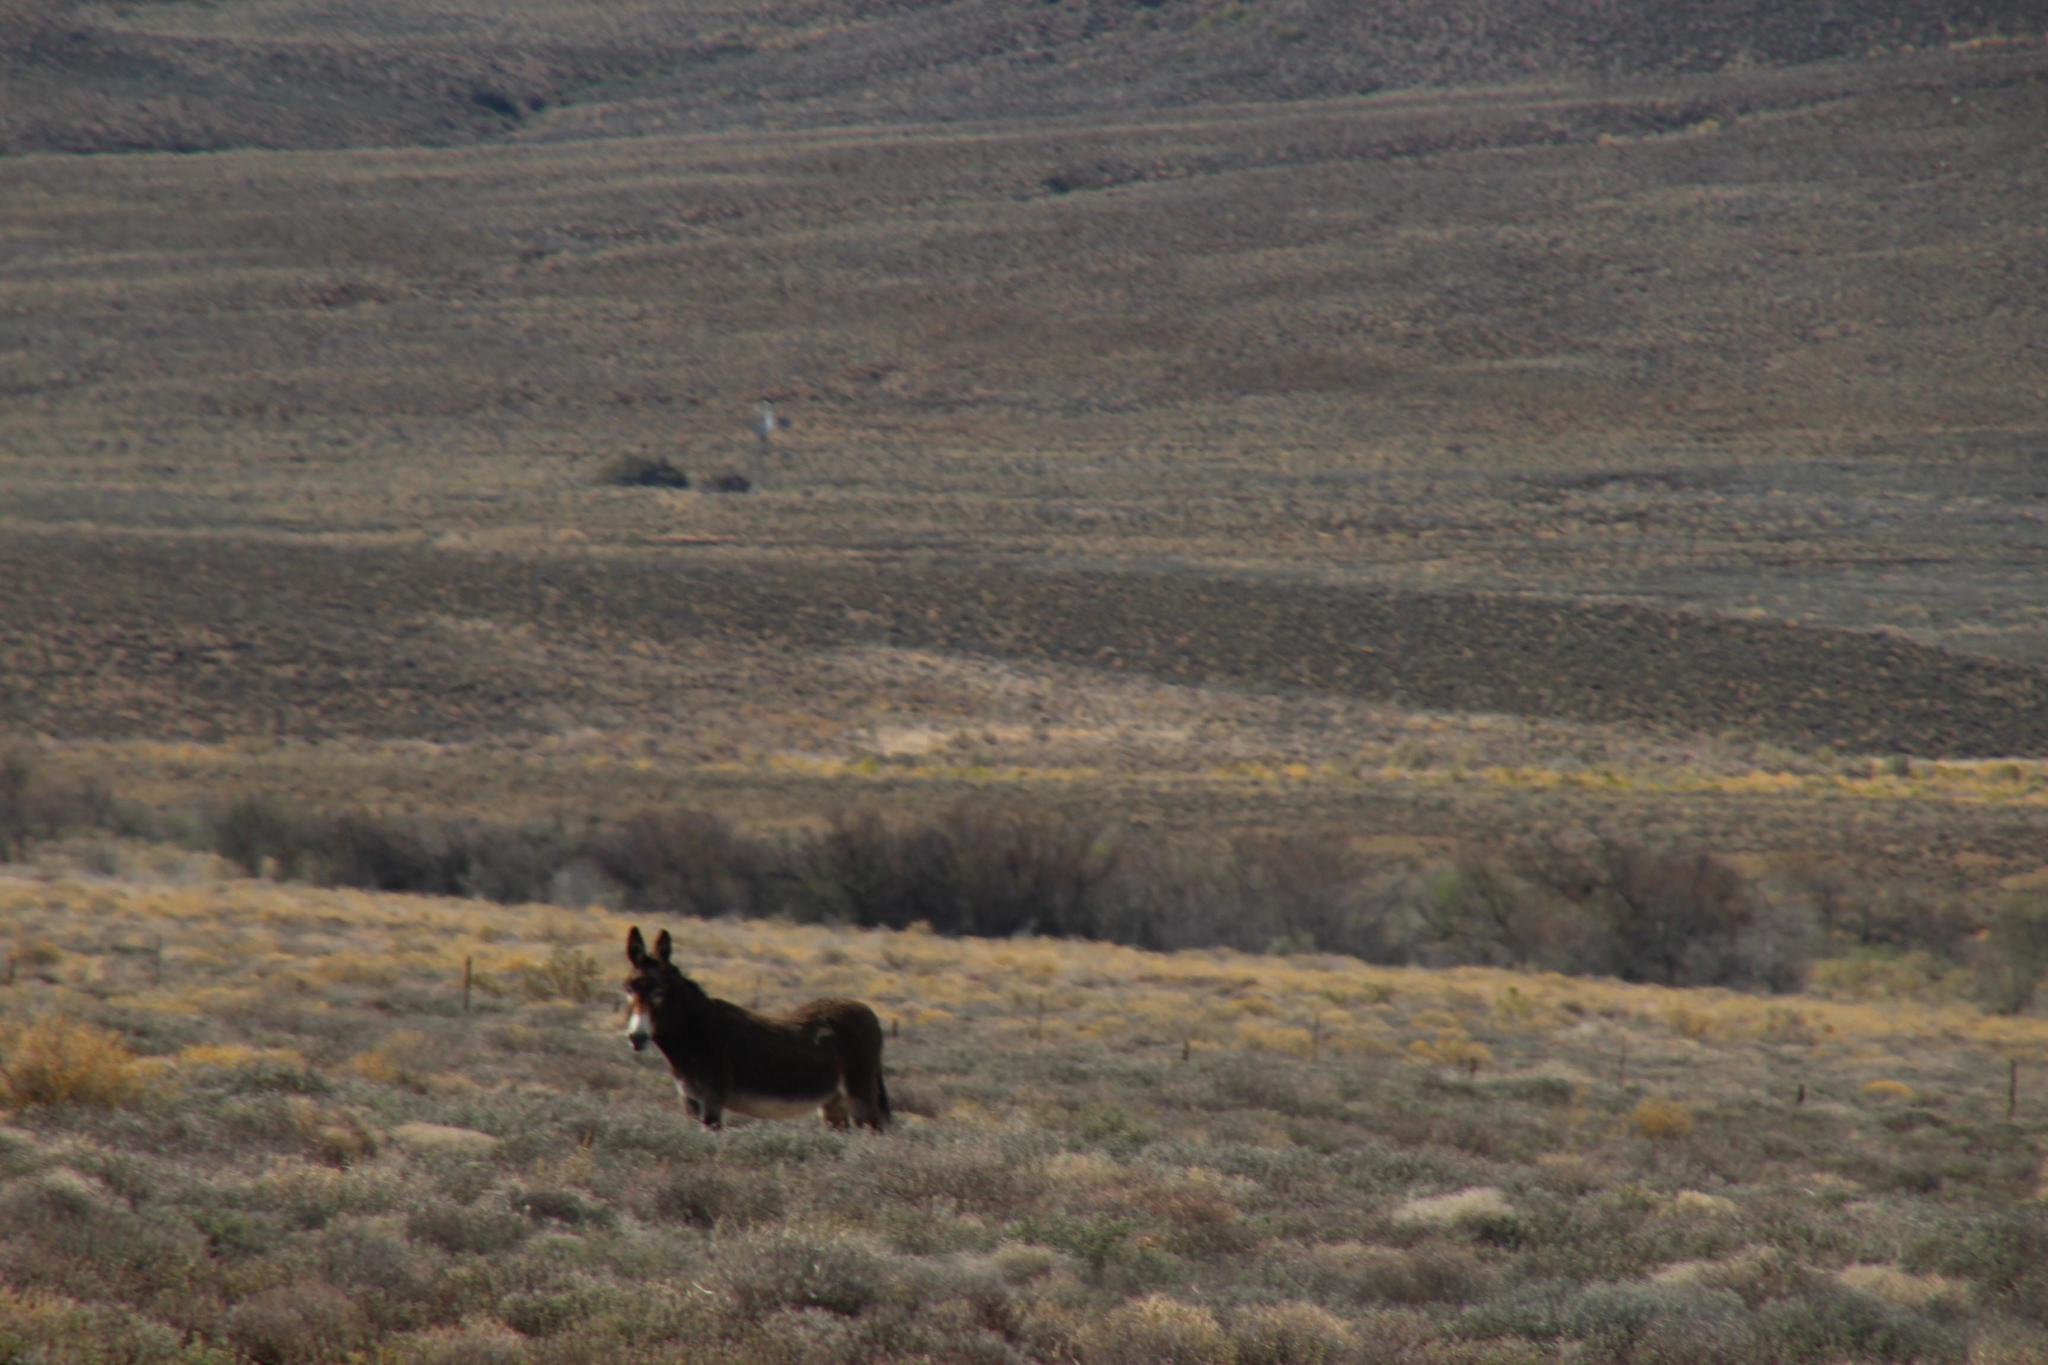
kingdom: Animalia
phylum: Chordata
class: Mammalia
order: Perissodactyla
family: Equidae
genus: Equus
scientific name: Equus asinus
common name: Ass
